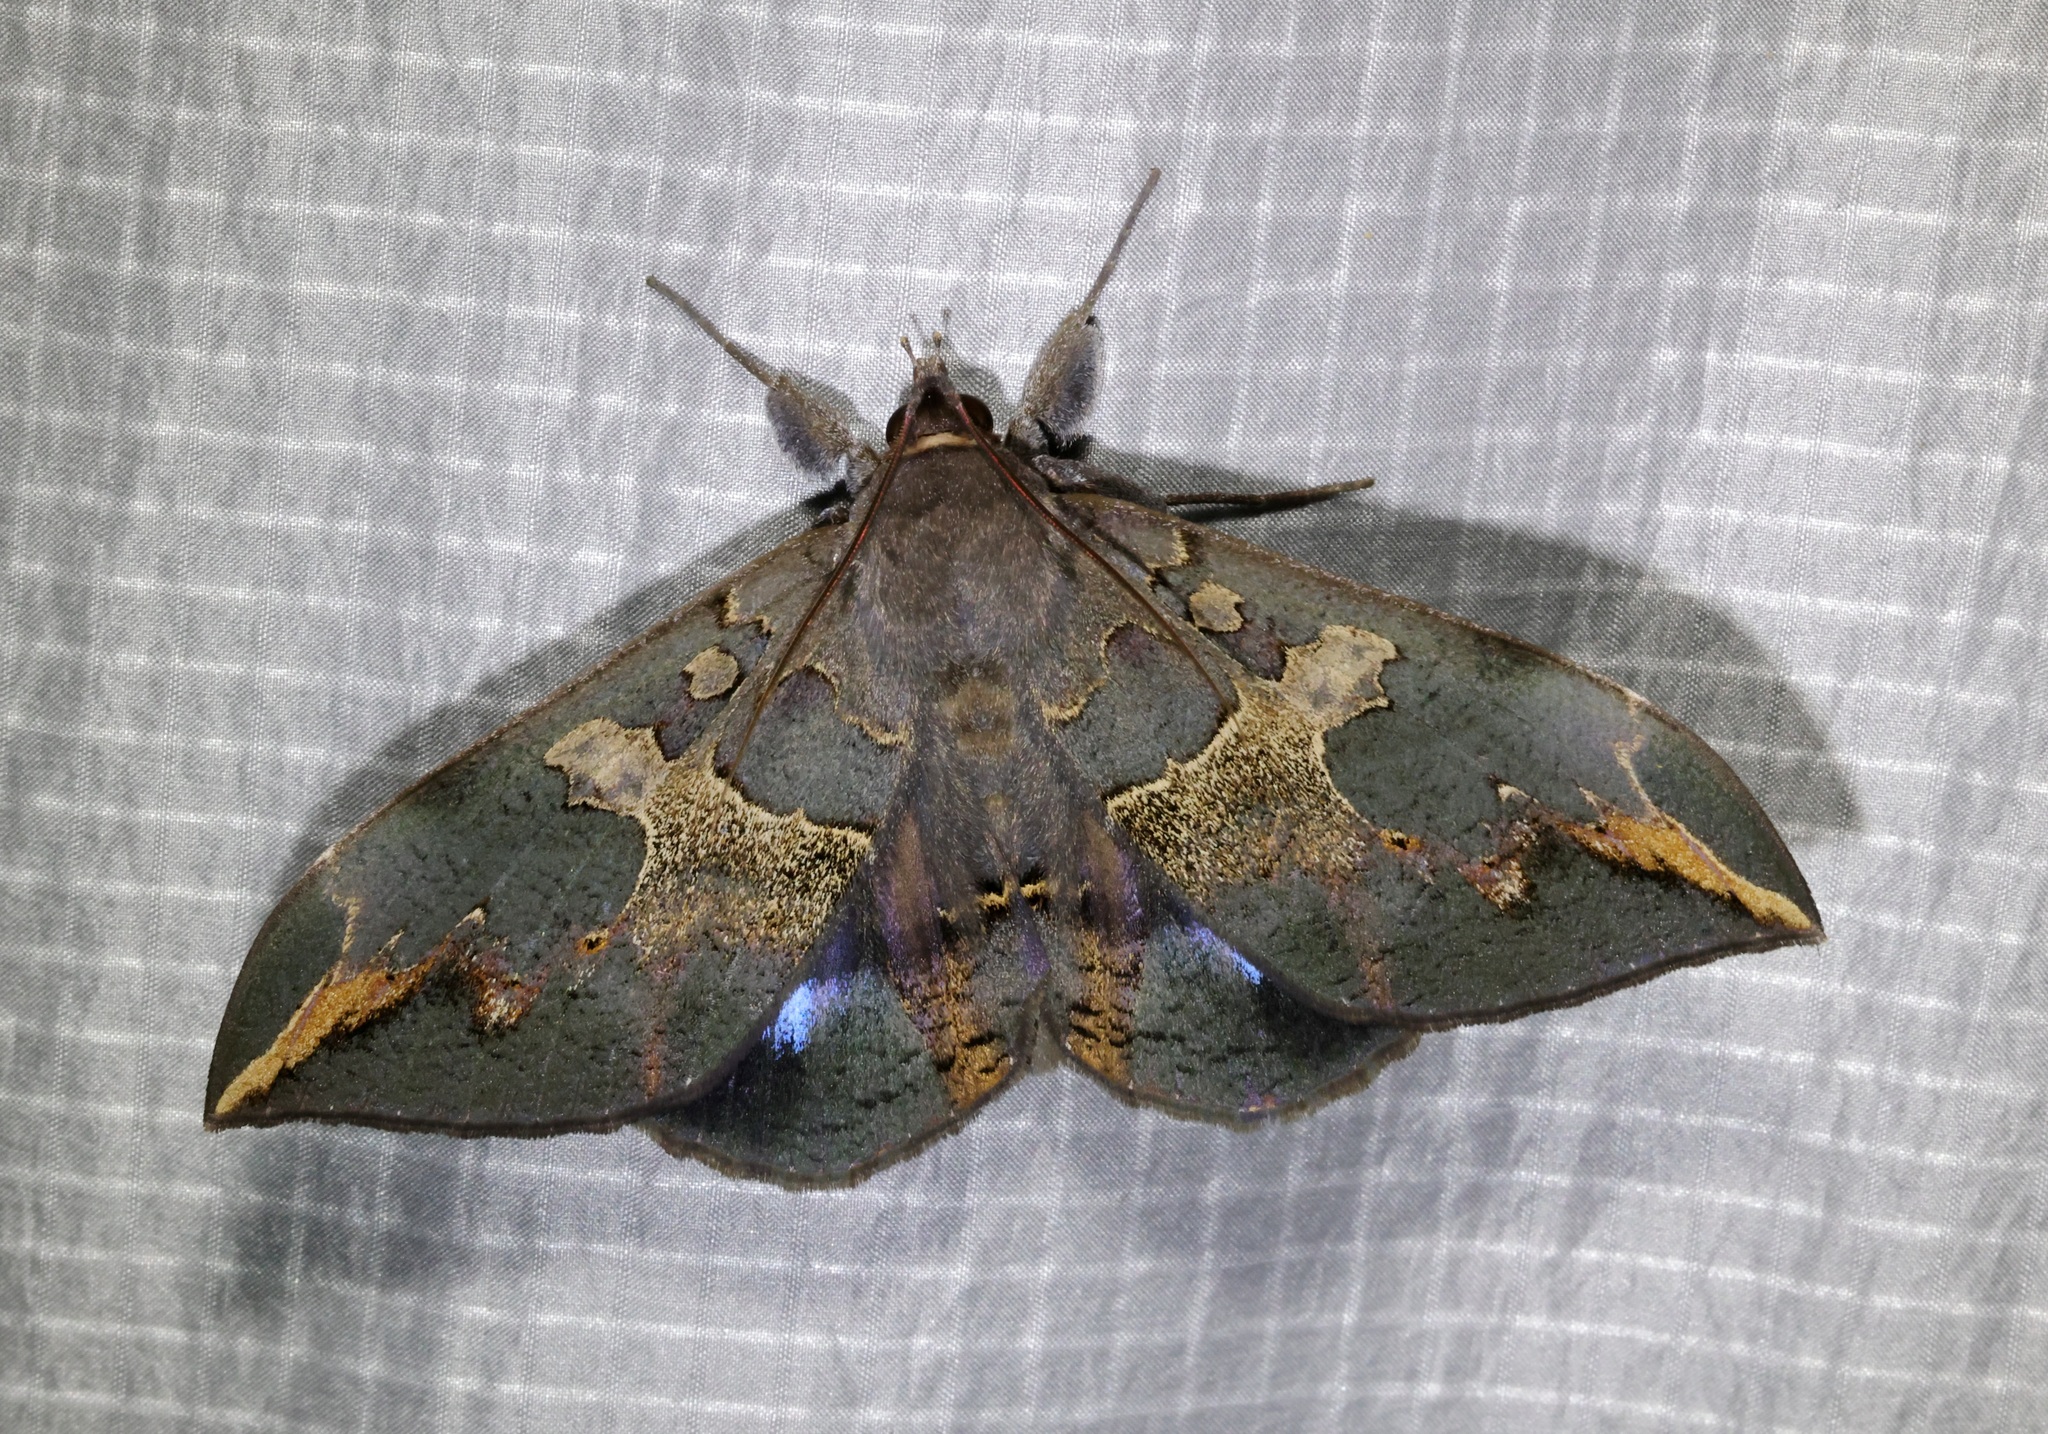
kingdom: Animalia
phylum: Arthropoda
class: Insecta
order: Lepidoptera
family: Erebidae
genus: Ischyja
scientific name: Ischyja ferrifracta
